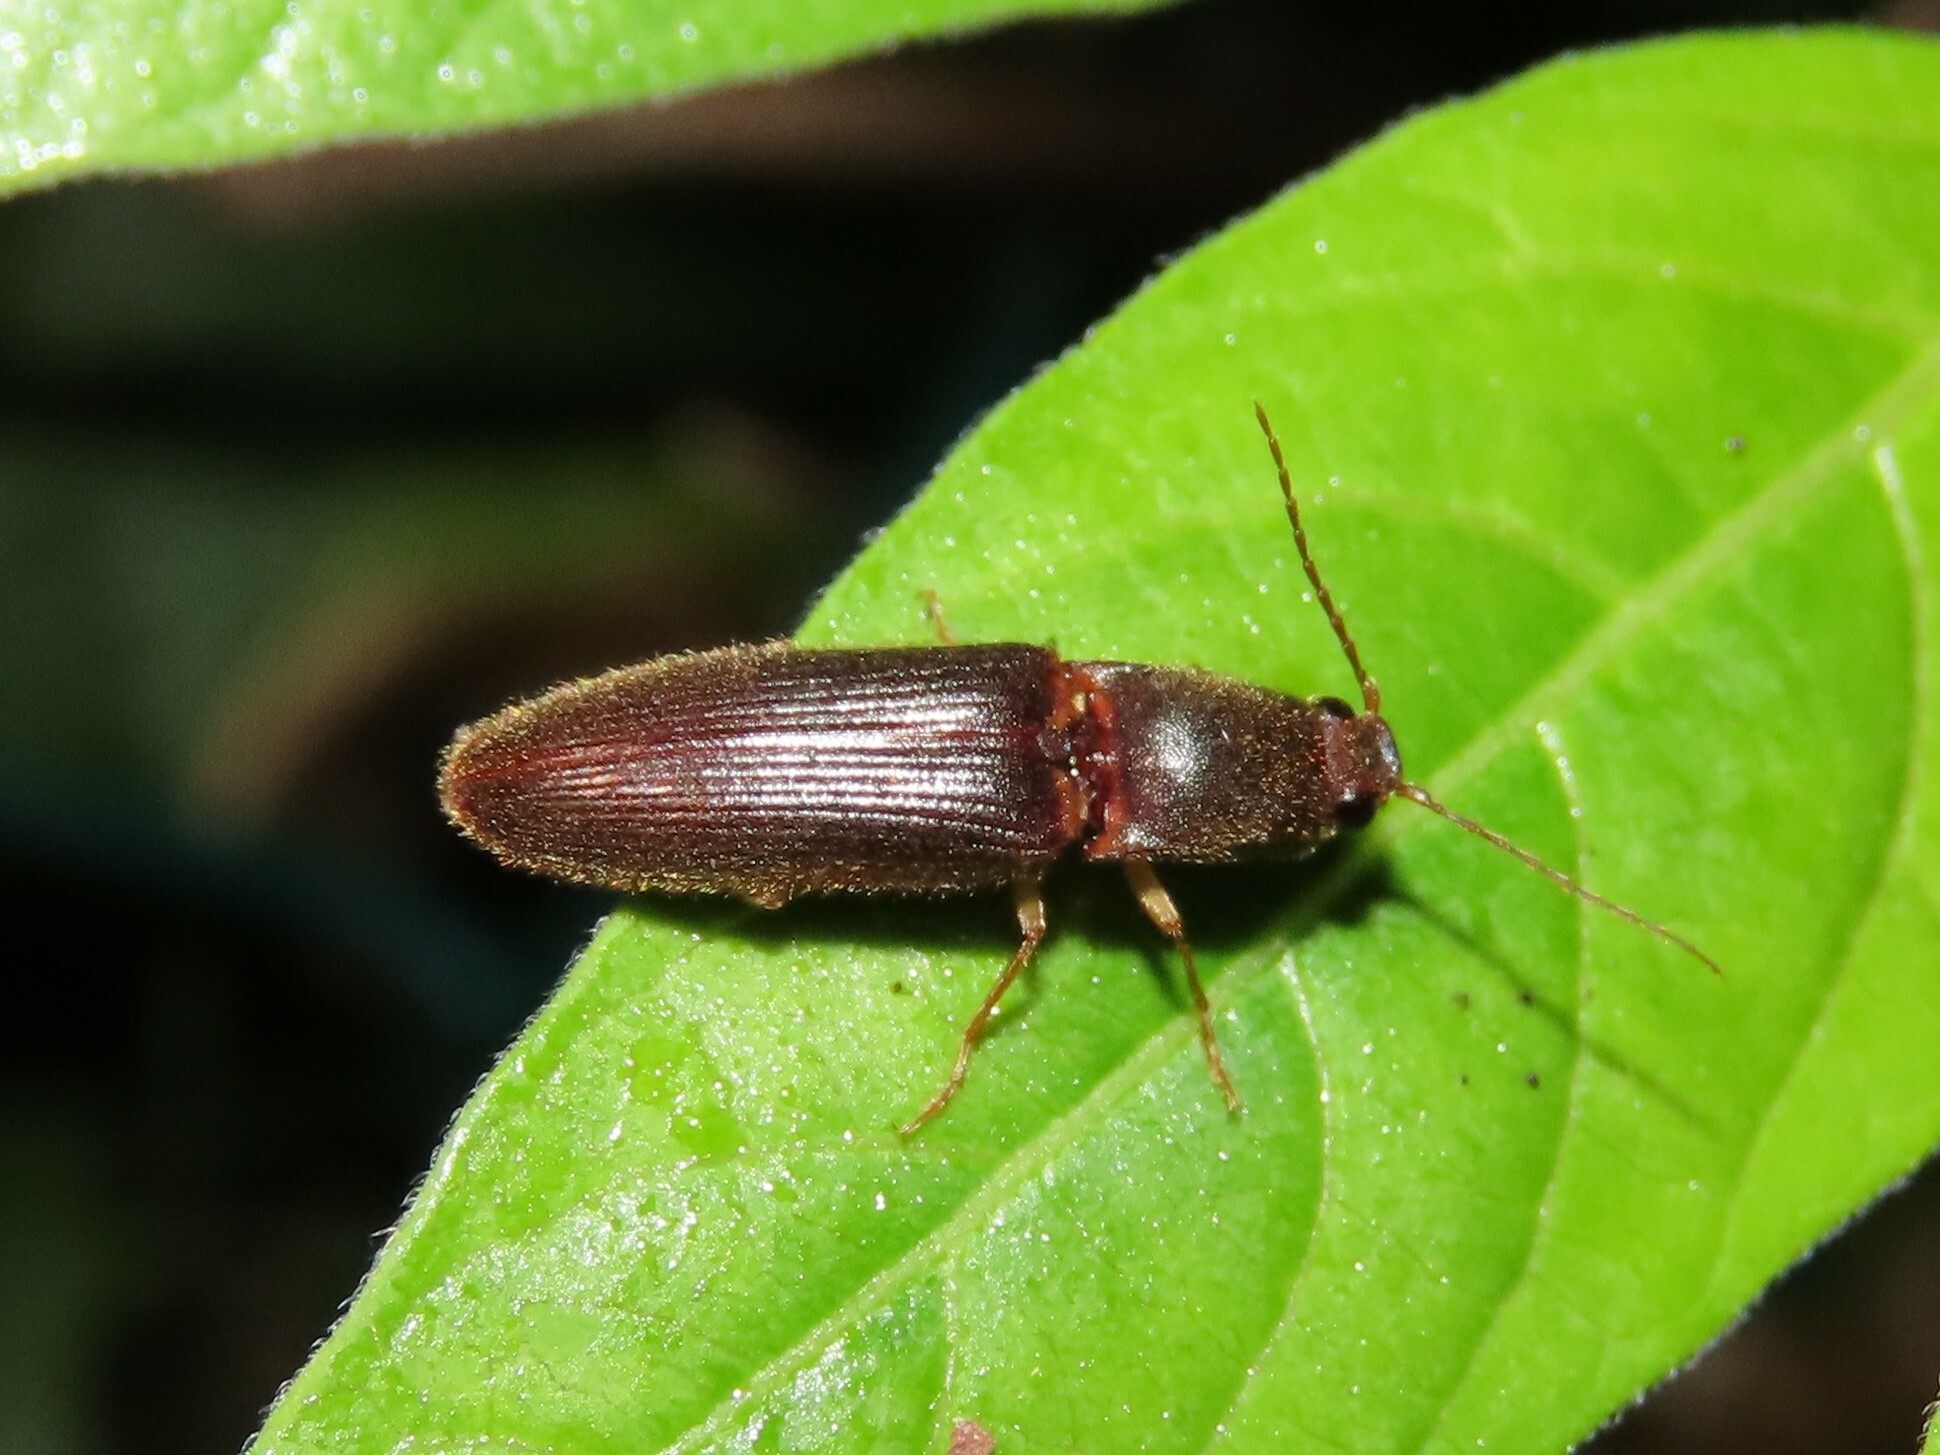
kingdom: Animalia
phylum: Arthropoda
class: Insecta
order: Coleoptera
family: Elateridae
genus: Athous
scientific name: Athous cucullatus
